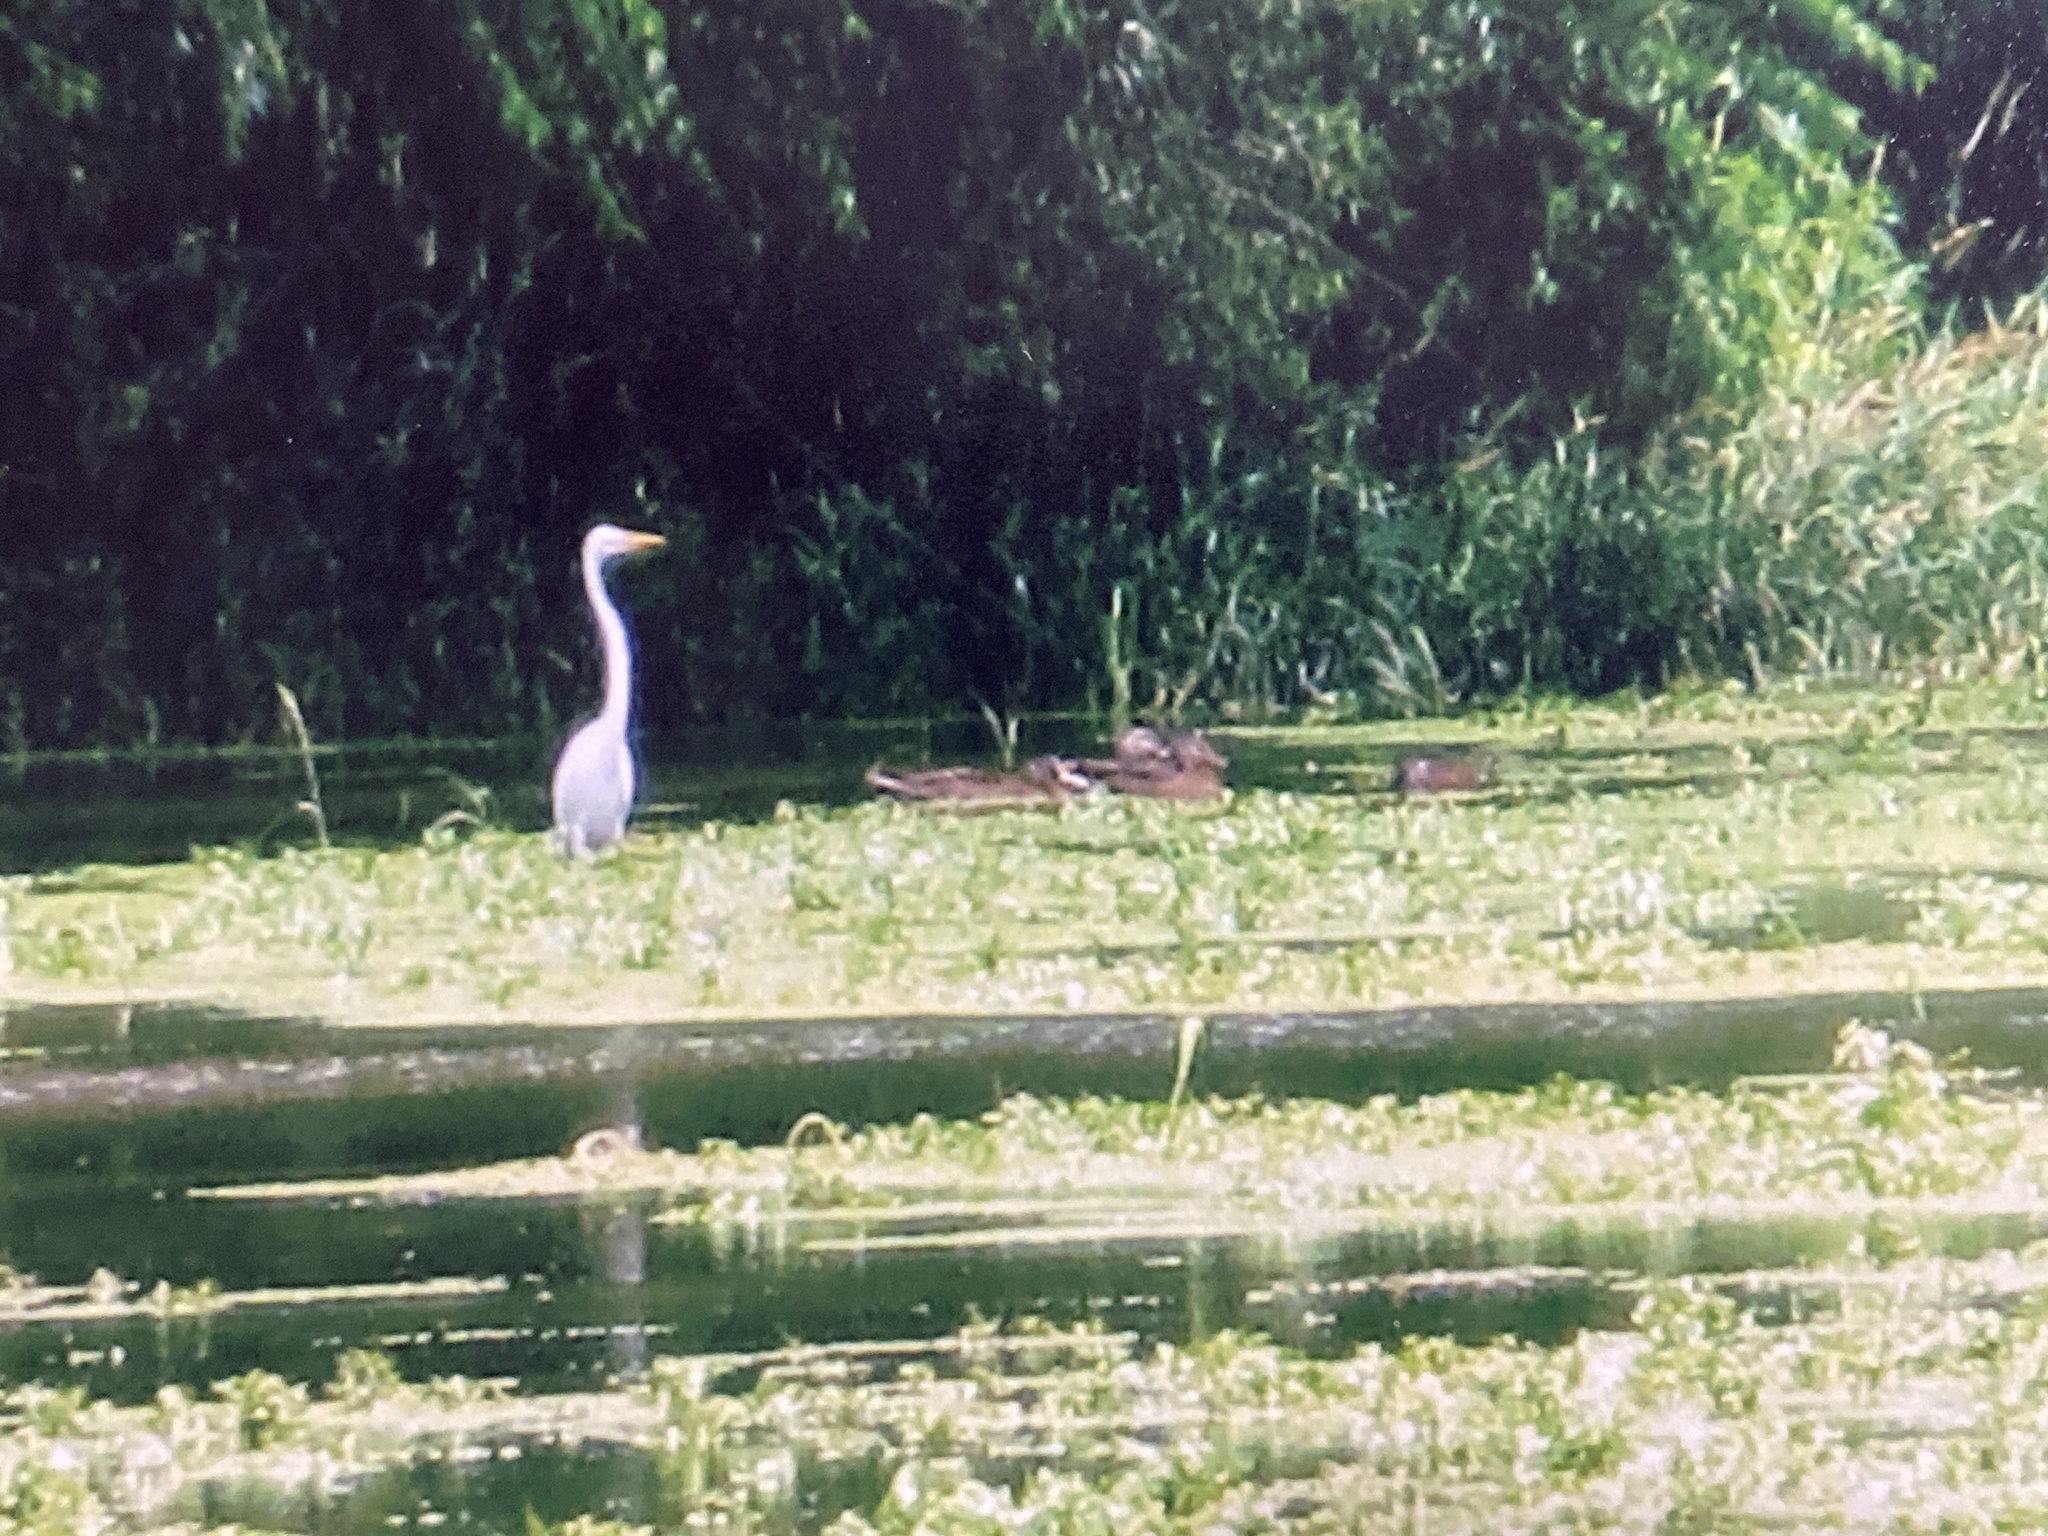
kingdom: Animalia
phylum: Chordata
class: Aves
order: Anseriformes
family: Anatidae
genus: Anas
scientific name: Anas platyrhynchos
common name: Mallard
